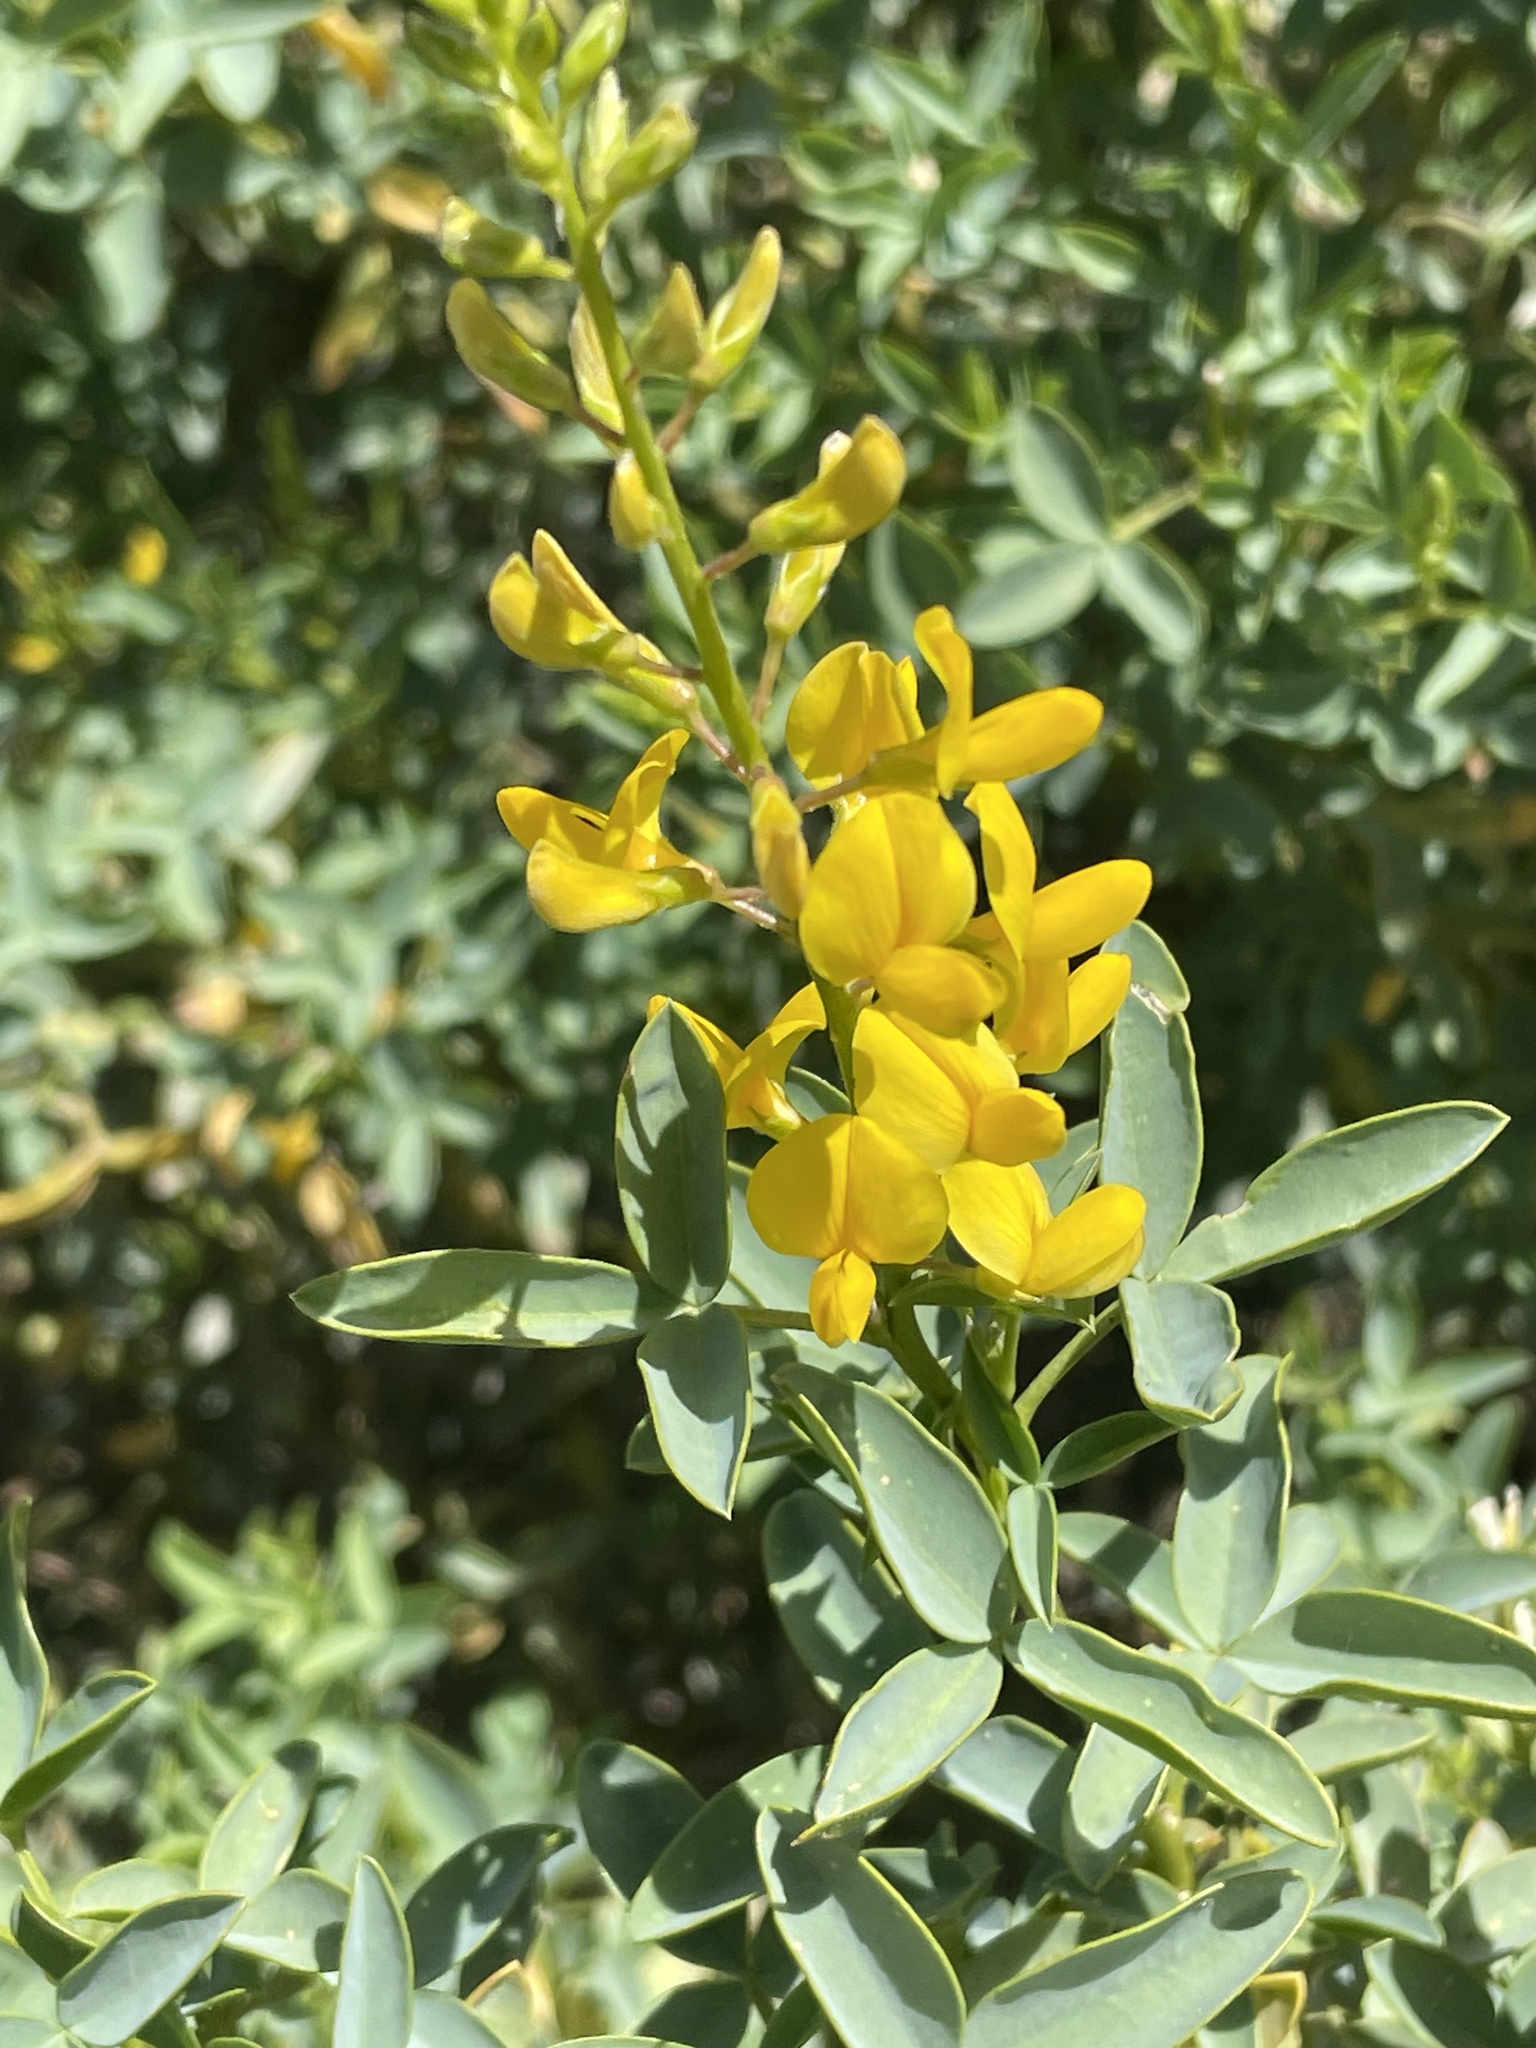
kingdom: Plantae
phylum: Tracheophyta
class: Magnoliopsida
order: Fabales
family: Fabaceae
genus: Adenocarpus
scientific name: Adenocarpus anagyrifolius
